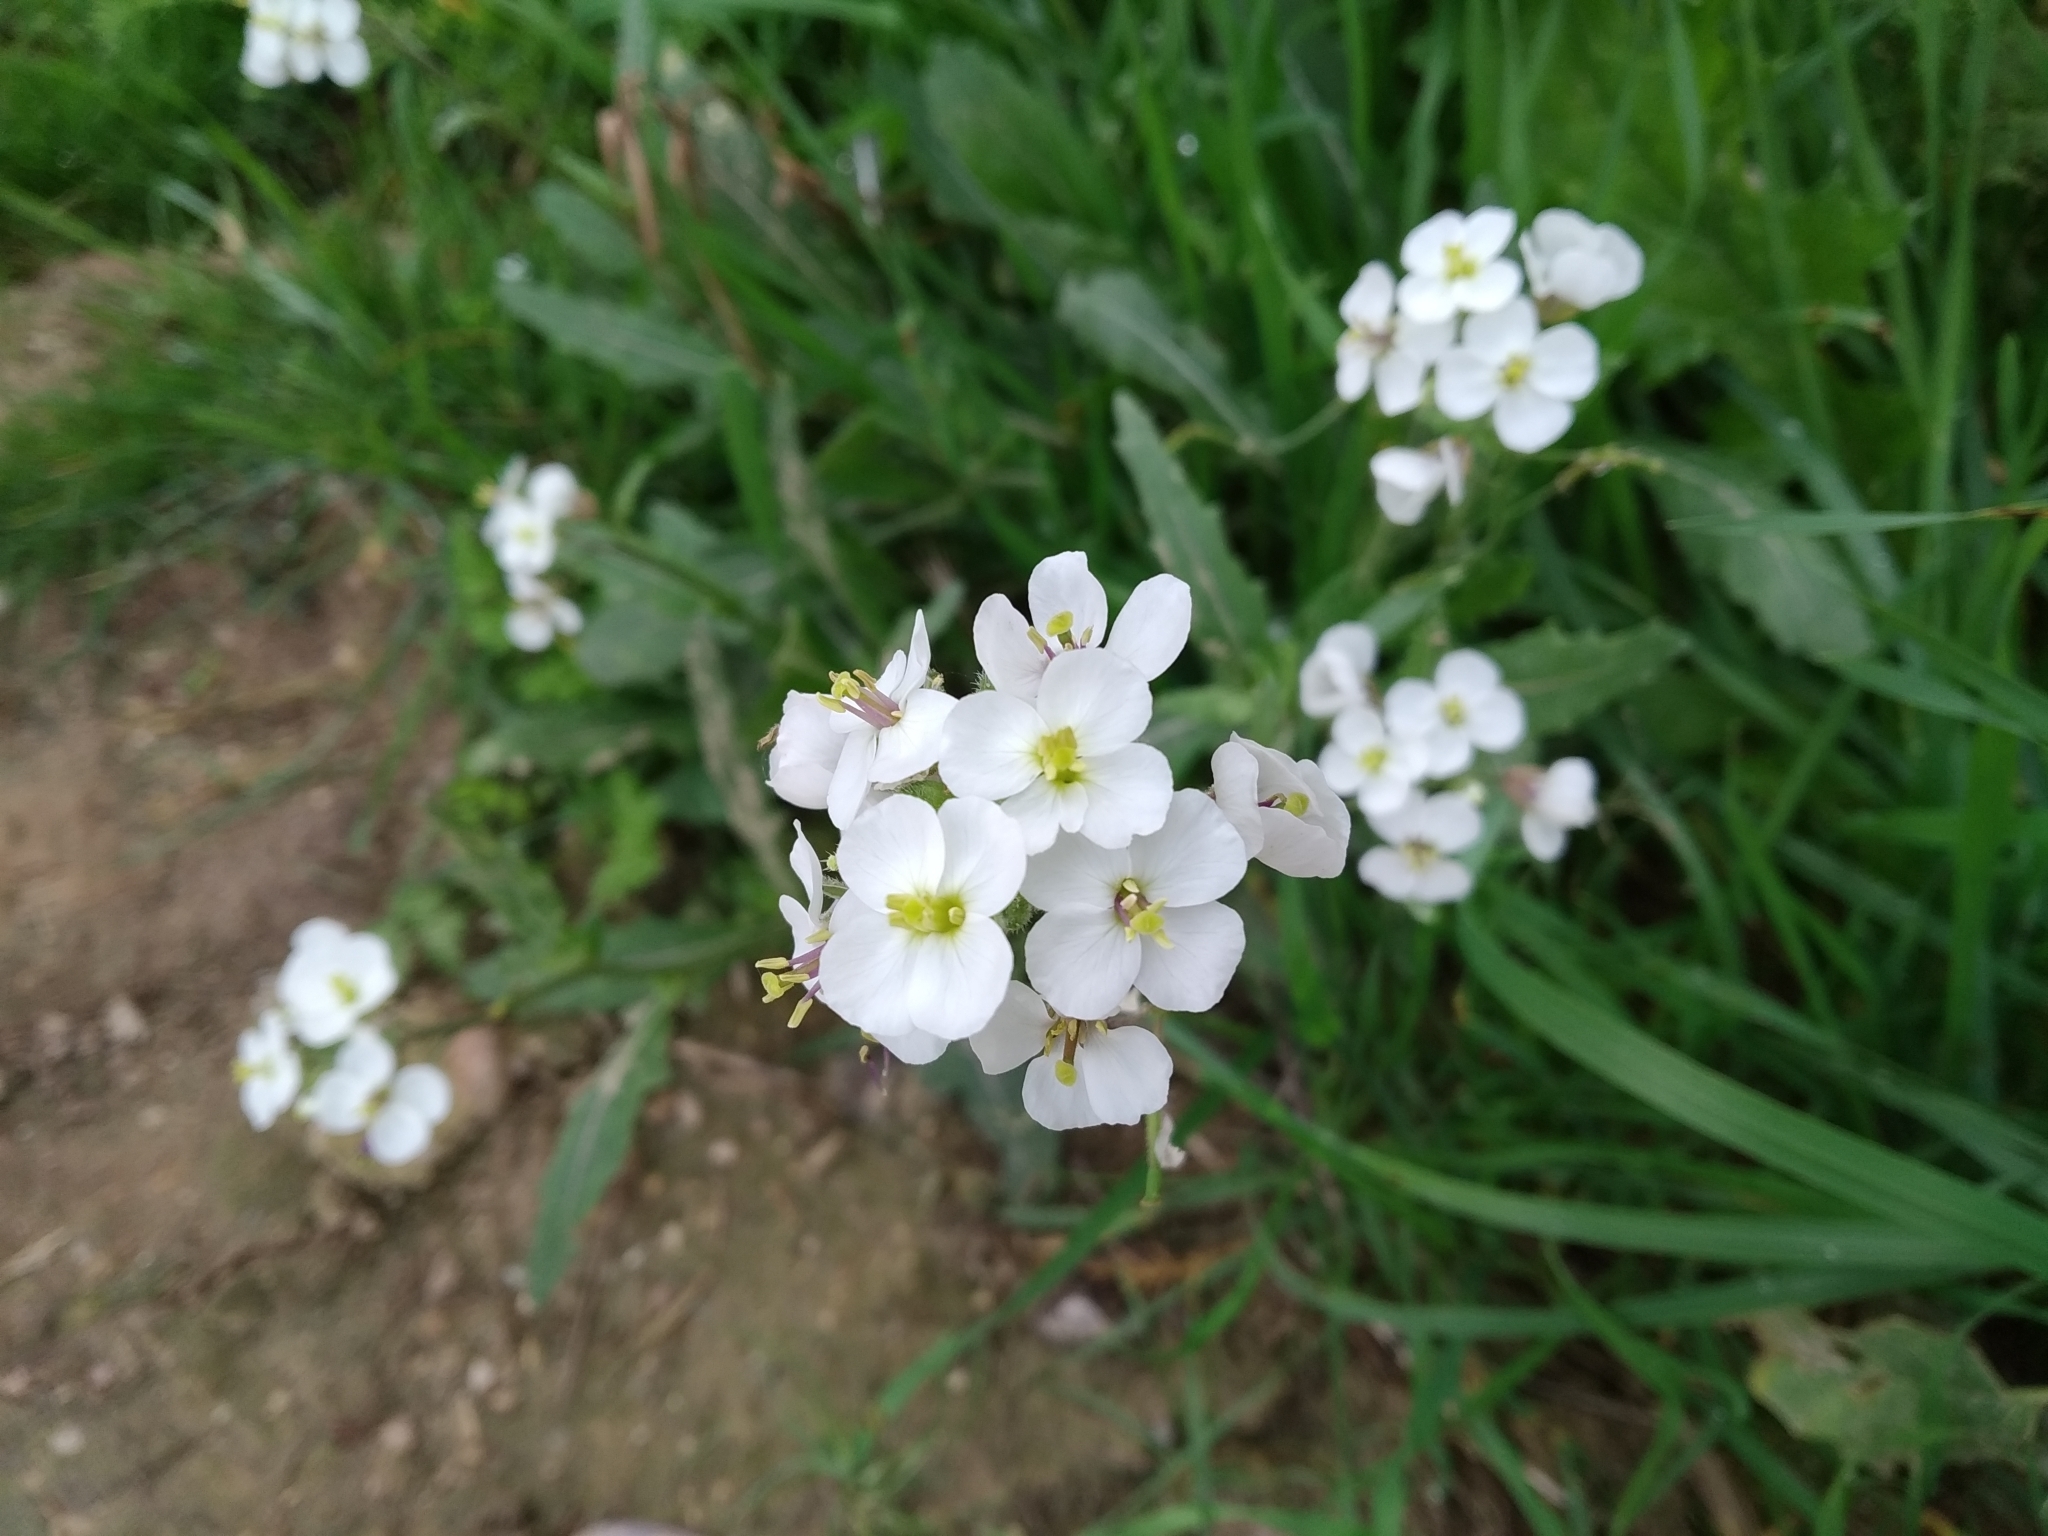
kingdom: Plantae
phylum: Tracheophyta
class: Magnoliopsida
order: Brassicales
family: Brassicaceae
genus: Diplotaxis
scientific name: Diplotaxis erucoides
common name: White rocket
